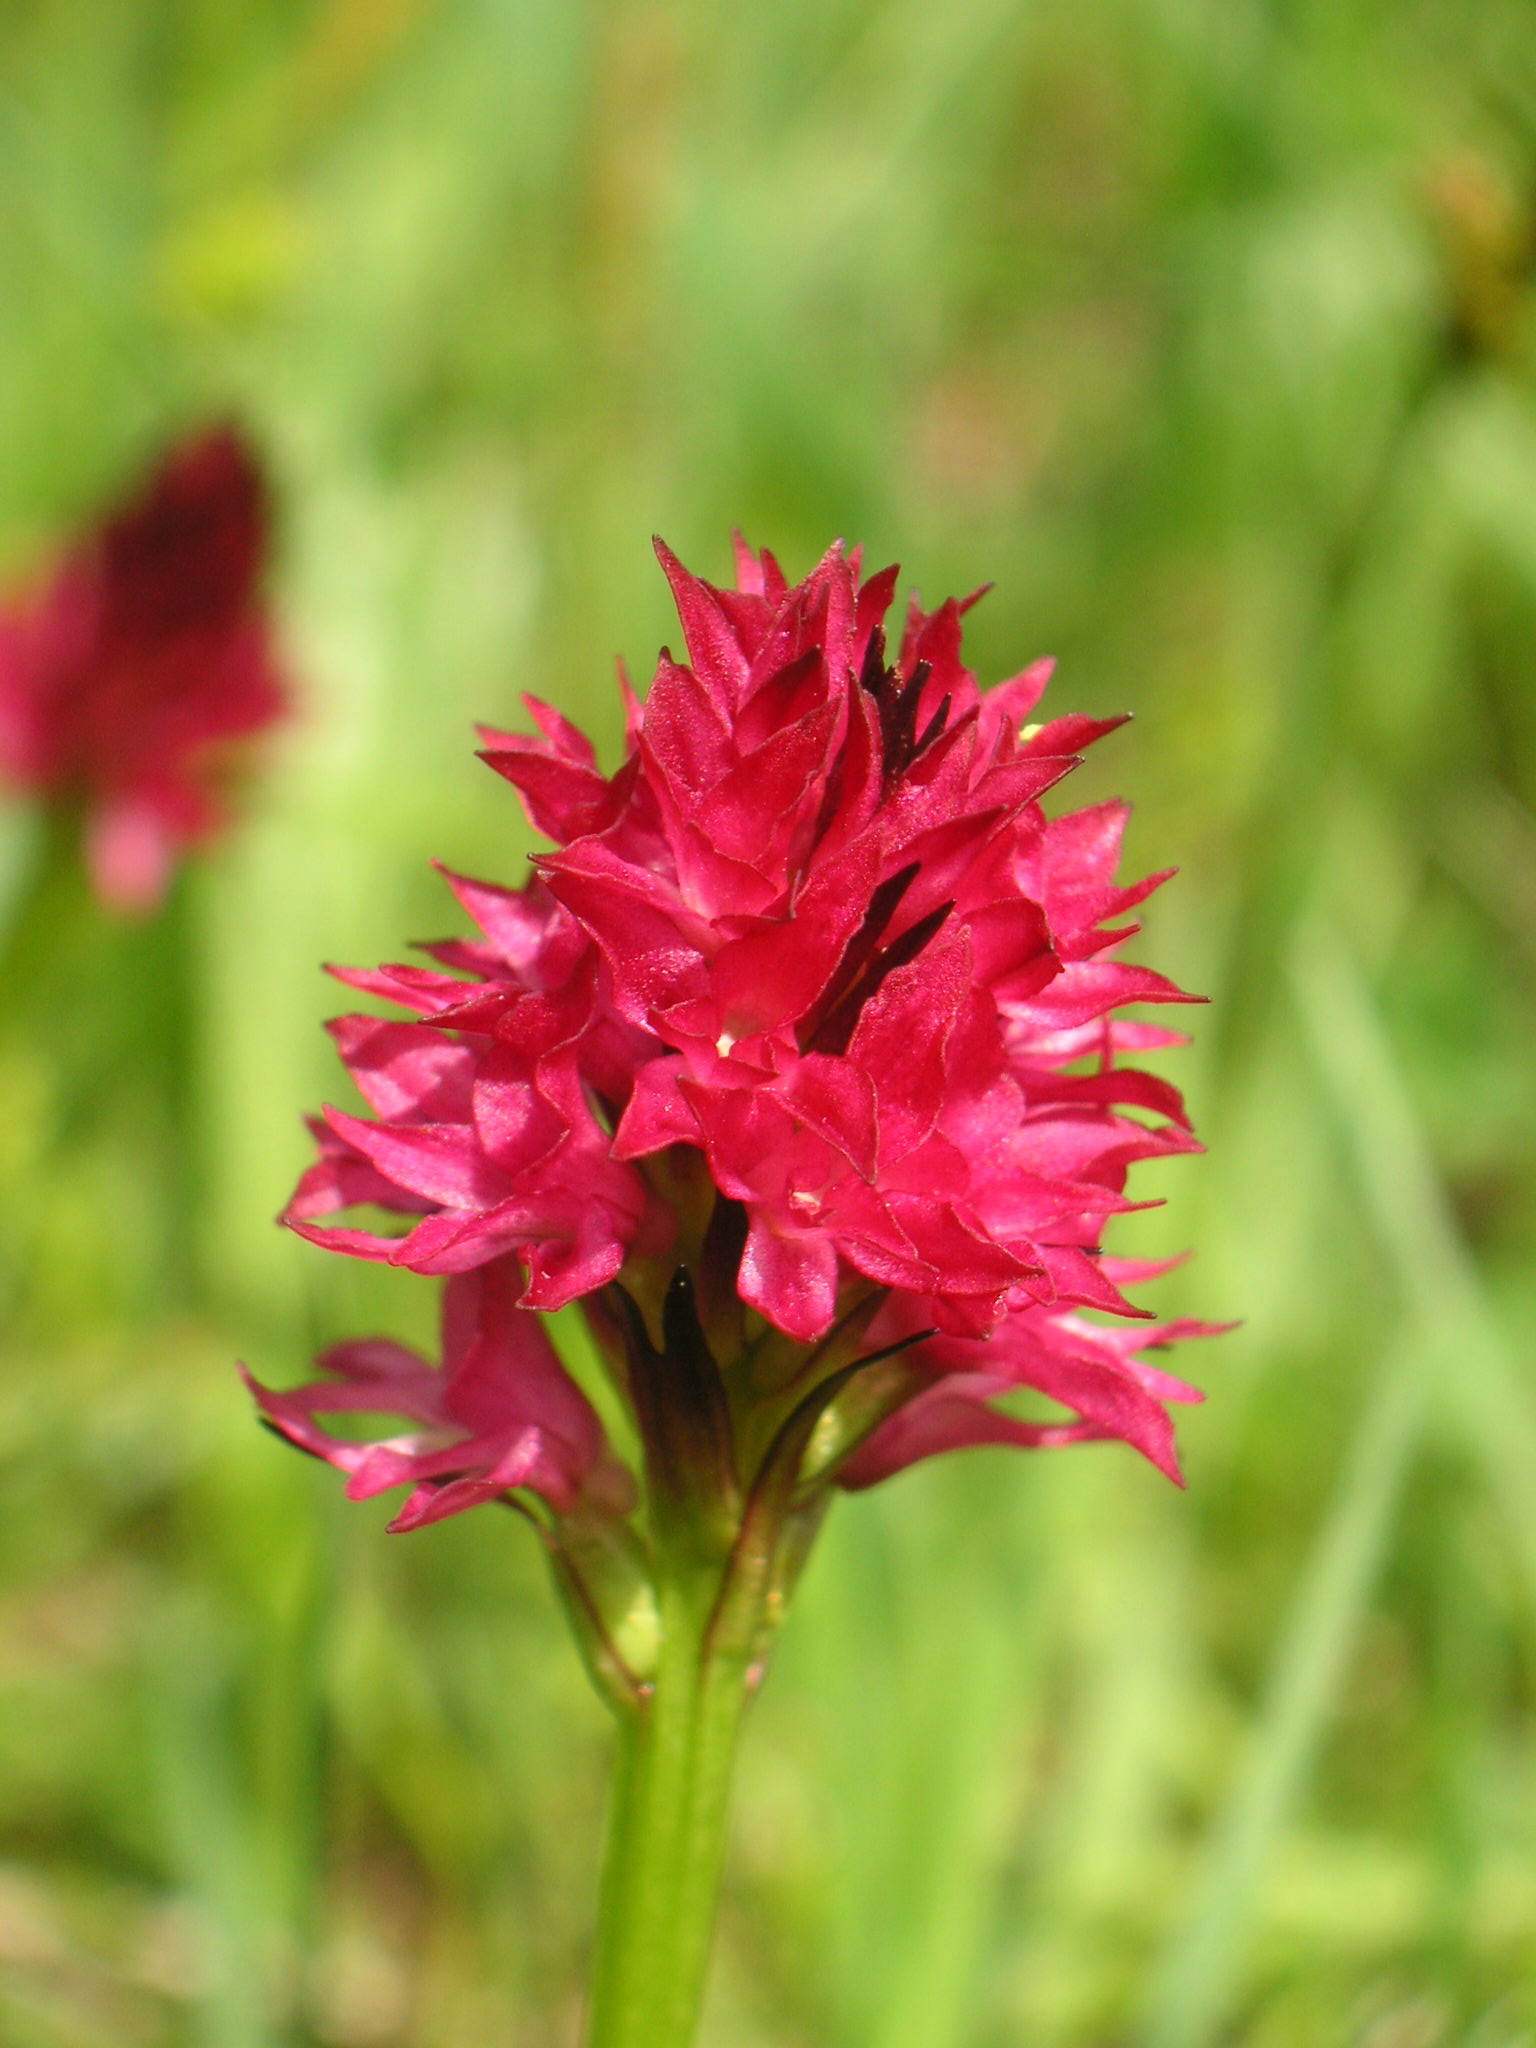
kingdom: Plantae
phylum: Tracheophyta
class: Liliopsida
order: Asparagales
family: Orchidaceae
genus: Gymnadenia
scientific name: Gymnadenia miniata
